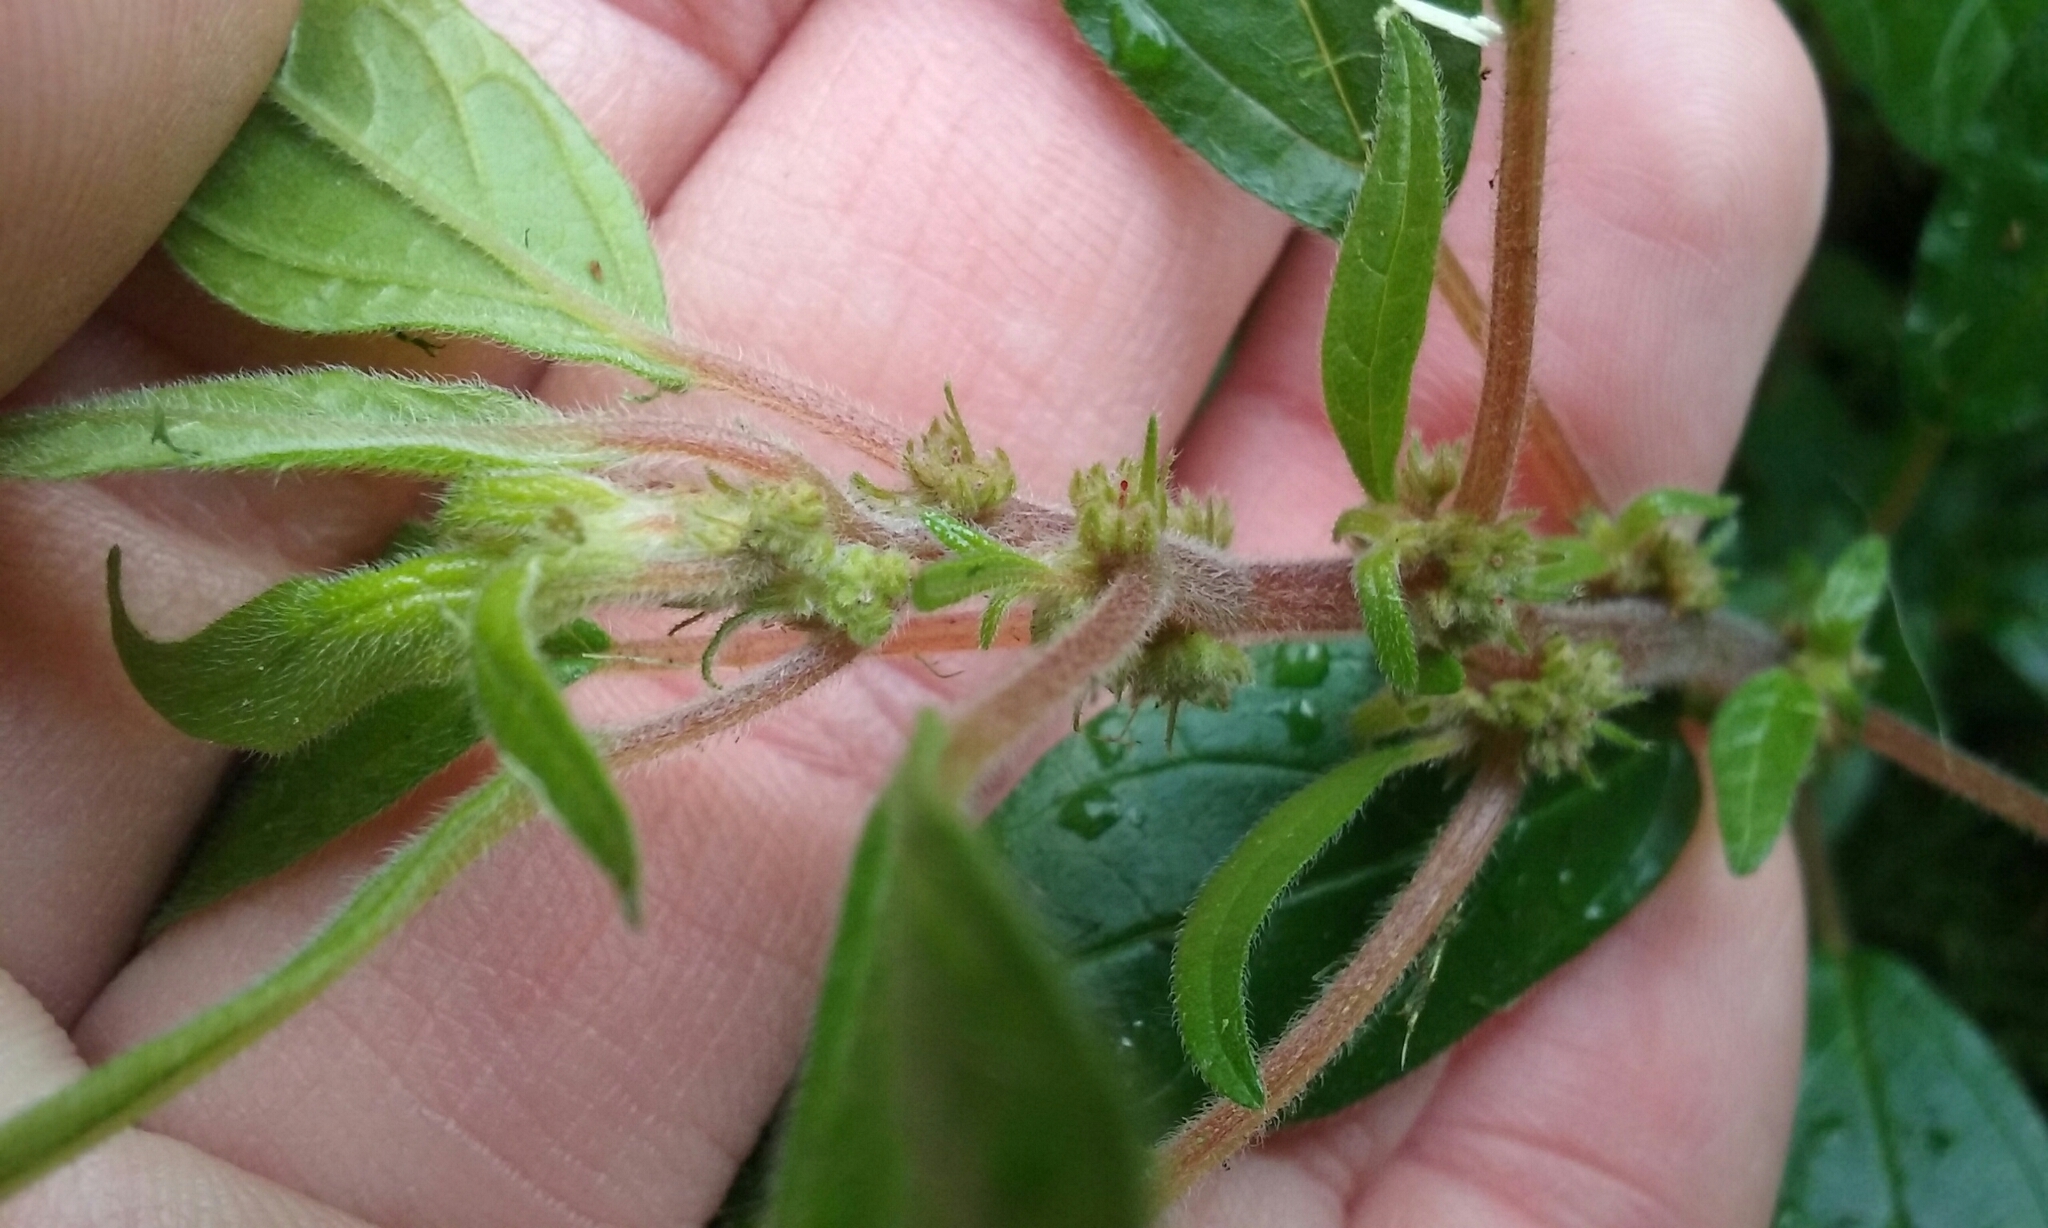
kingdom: Plantae
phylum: Tracheophyta
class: Magnoliopsida
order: Rosales
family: Urticaceae
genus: Parietaria
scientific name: Parietaria judaica
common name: Pellitory-of-the-wall
